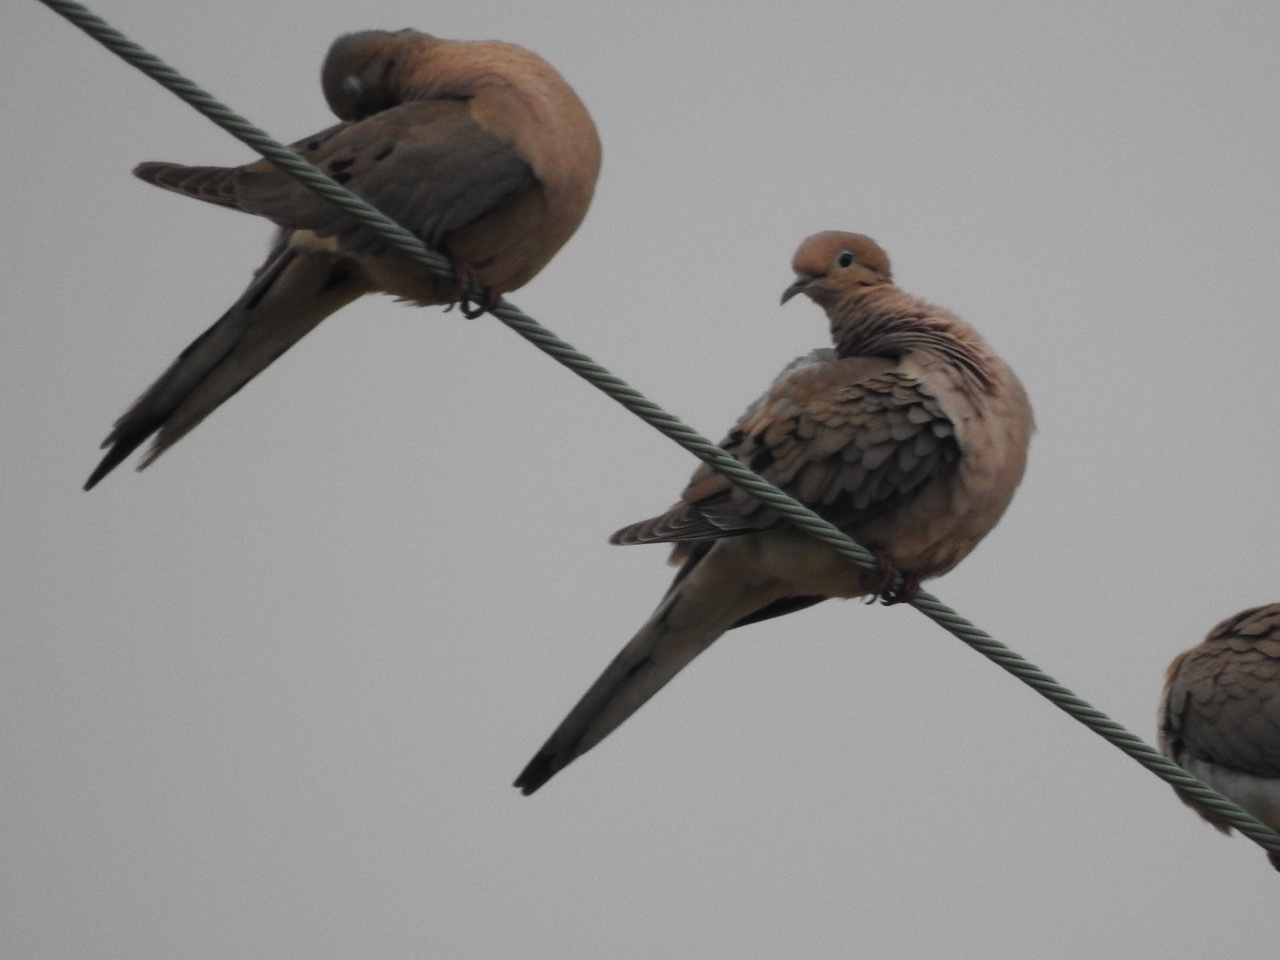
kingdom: Animalia
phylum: Chordata
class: Aves
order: Columbiformes
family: Columbidae
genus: Zenaida
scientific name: Zenaida macroura
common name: Mourning dove
